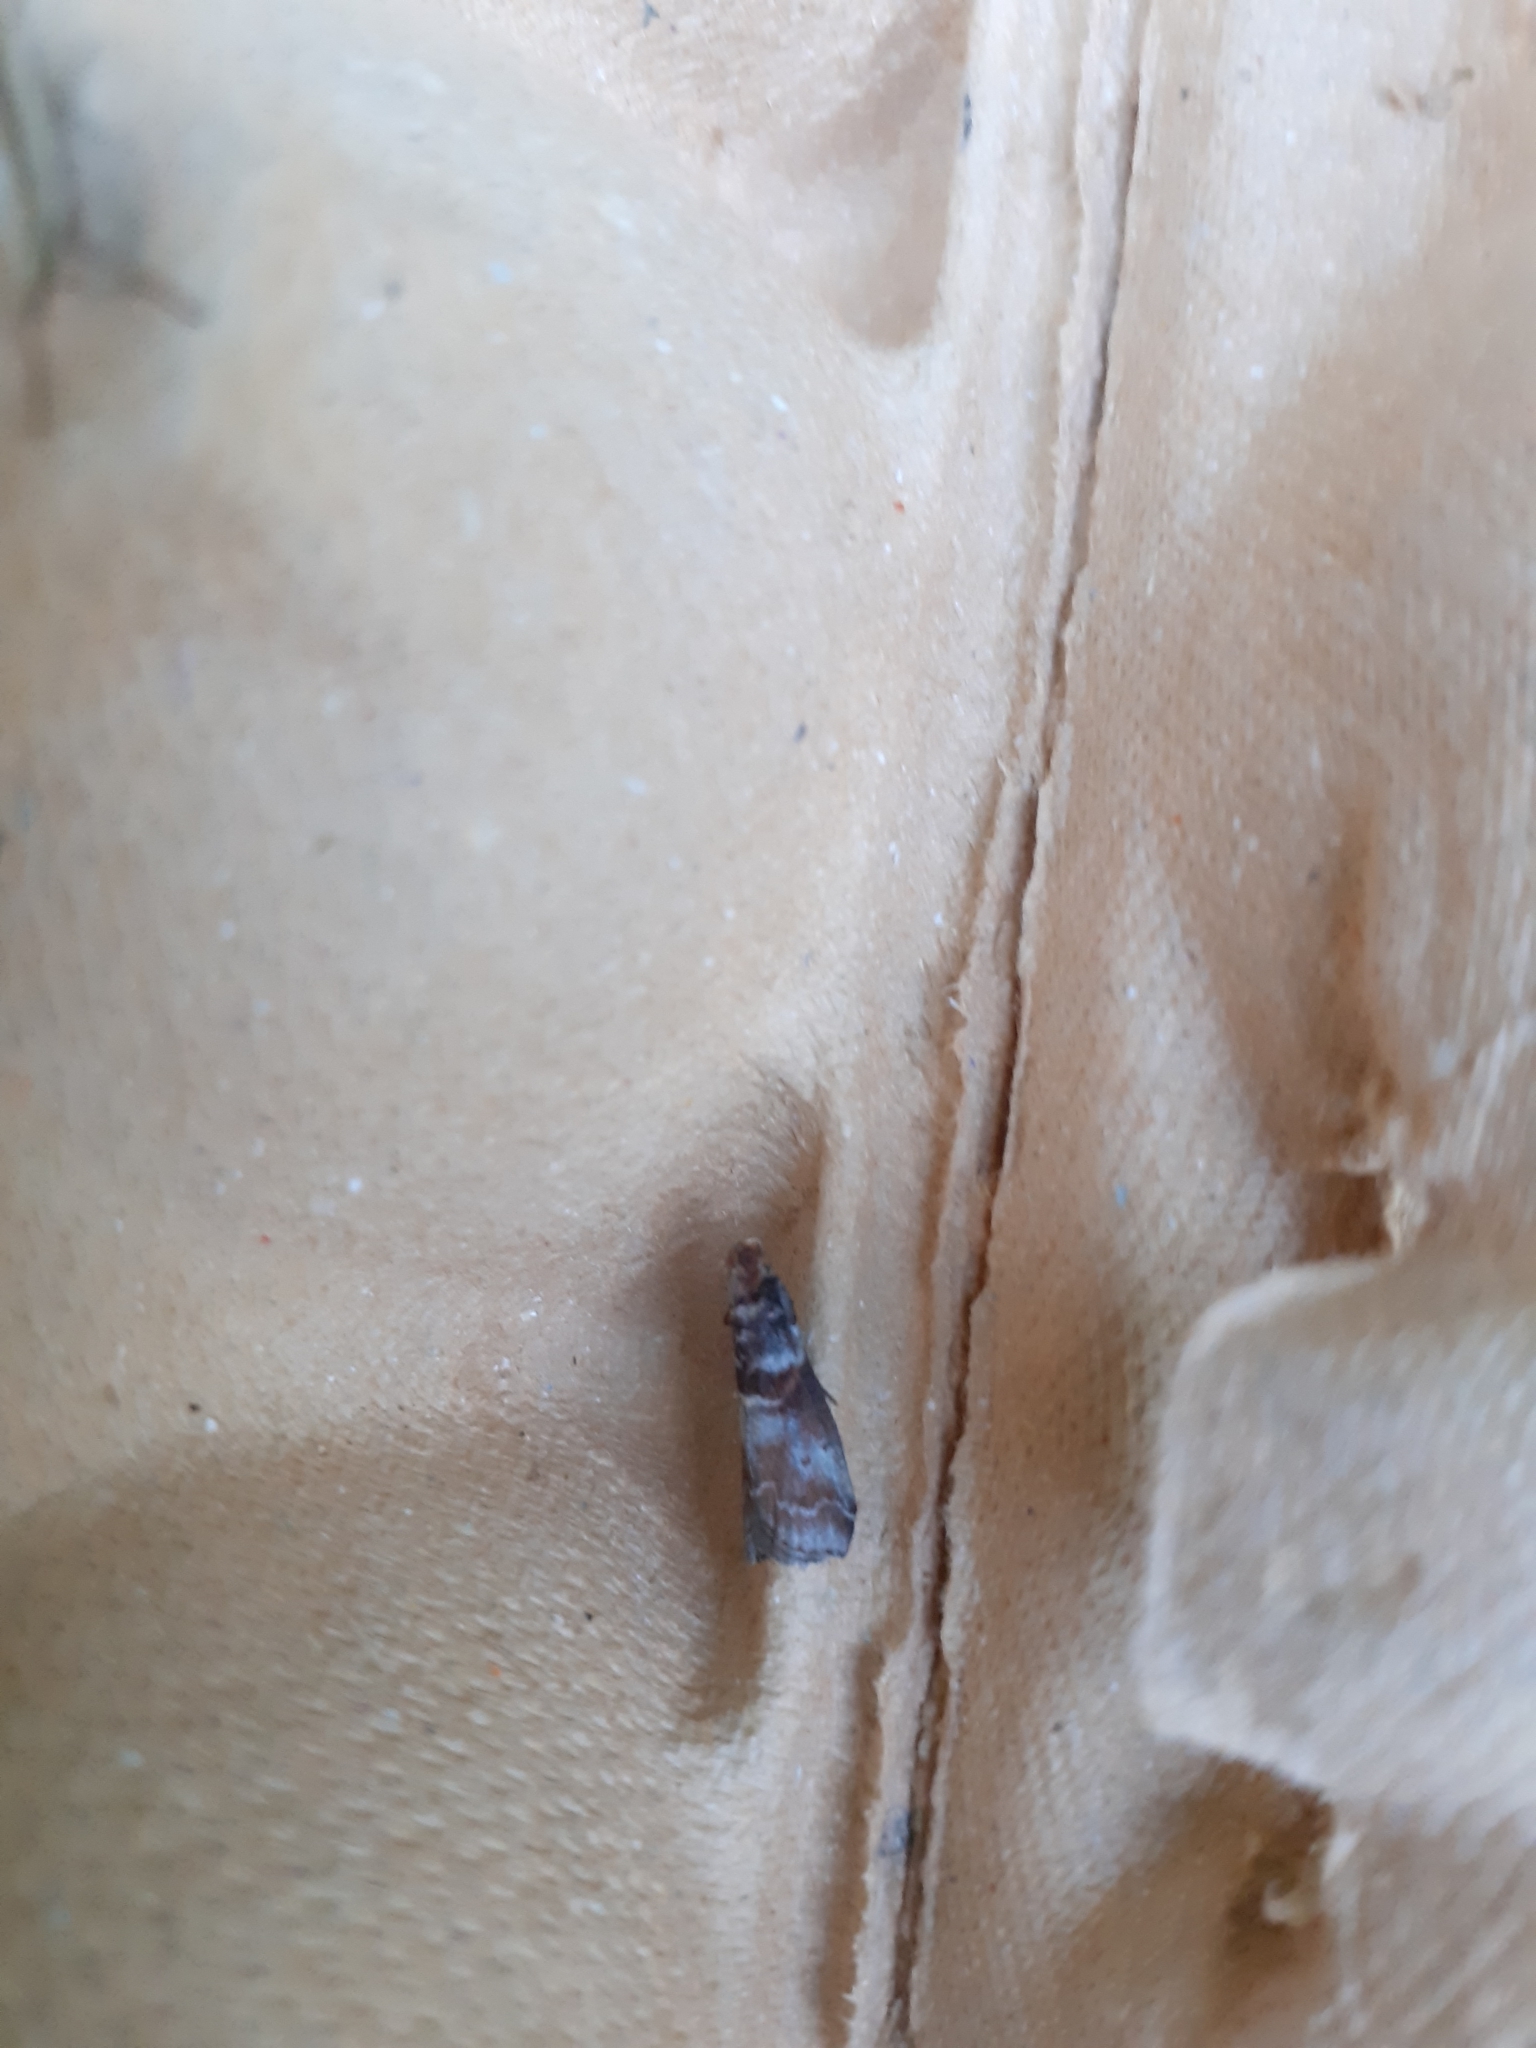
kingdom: Animalia
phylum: Arthropoda
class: Insecta
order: Lepidoptera
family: Pyralidae
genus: Acrobasis
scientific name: Acrobasis advenella
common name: Grey knot-horn
